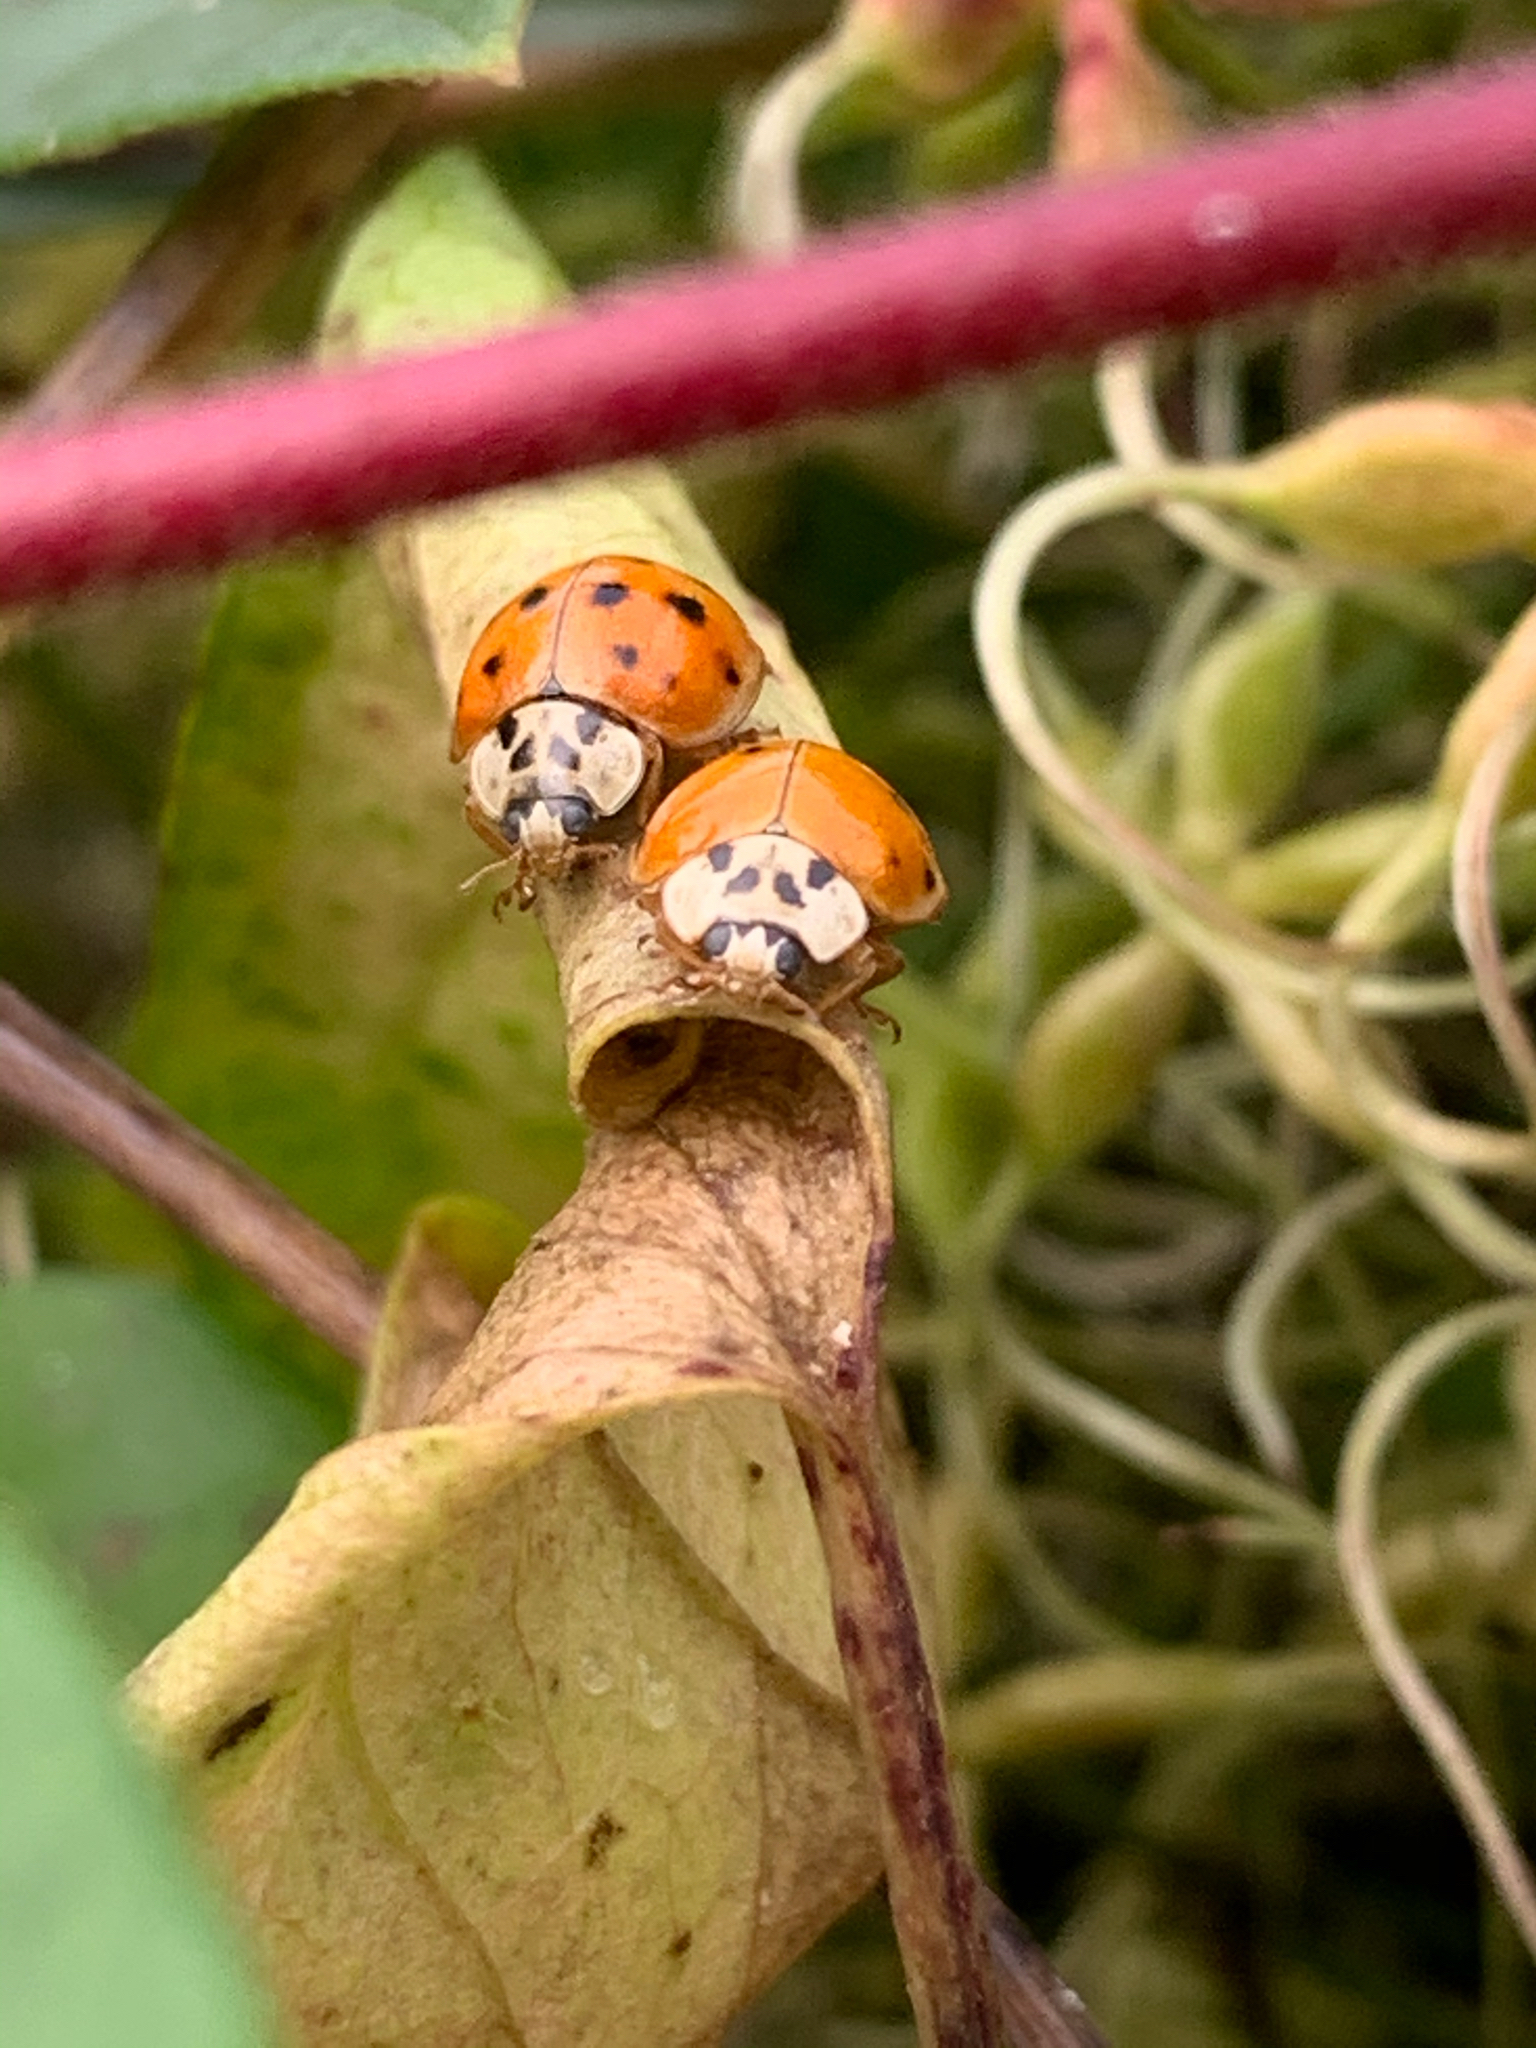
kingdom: Animalia
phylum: Arthropoda
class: Insecta
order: Coleoptera
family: Coccinellidae
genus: Harmonia
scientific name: Harmonia axyridis
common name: Harlequin ladybird
